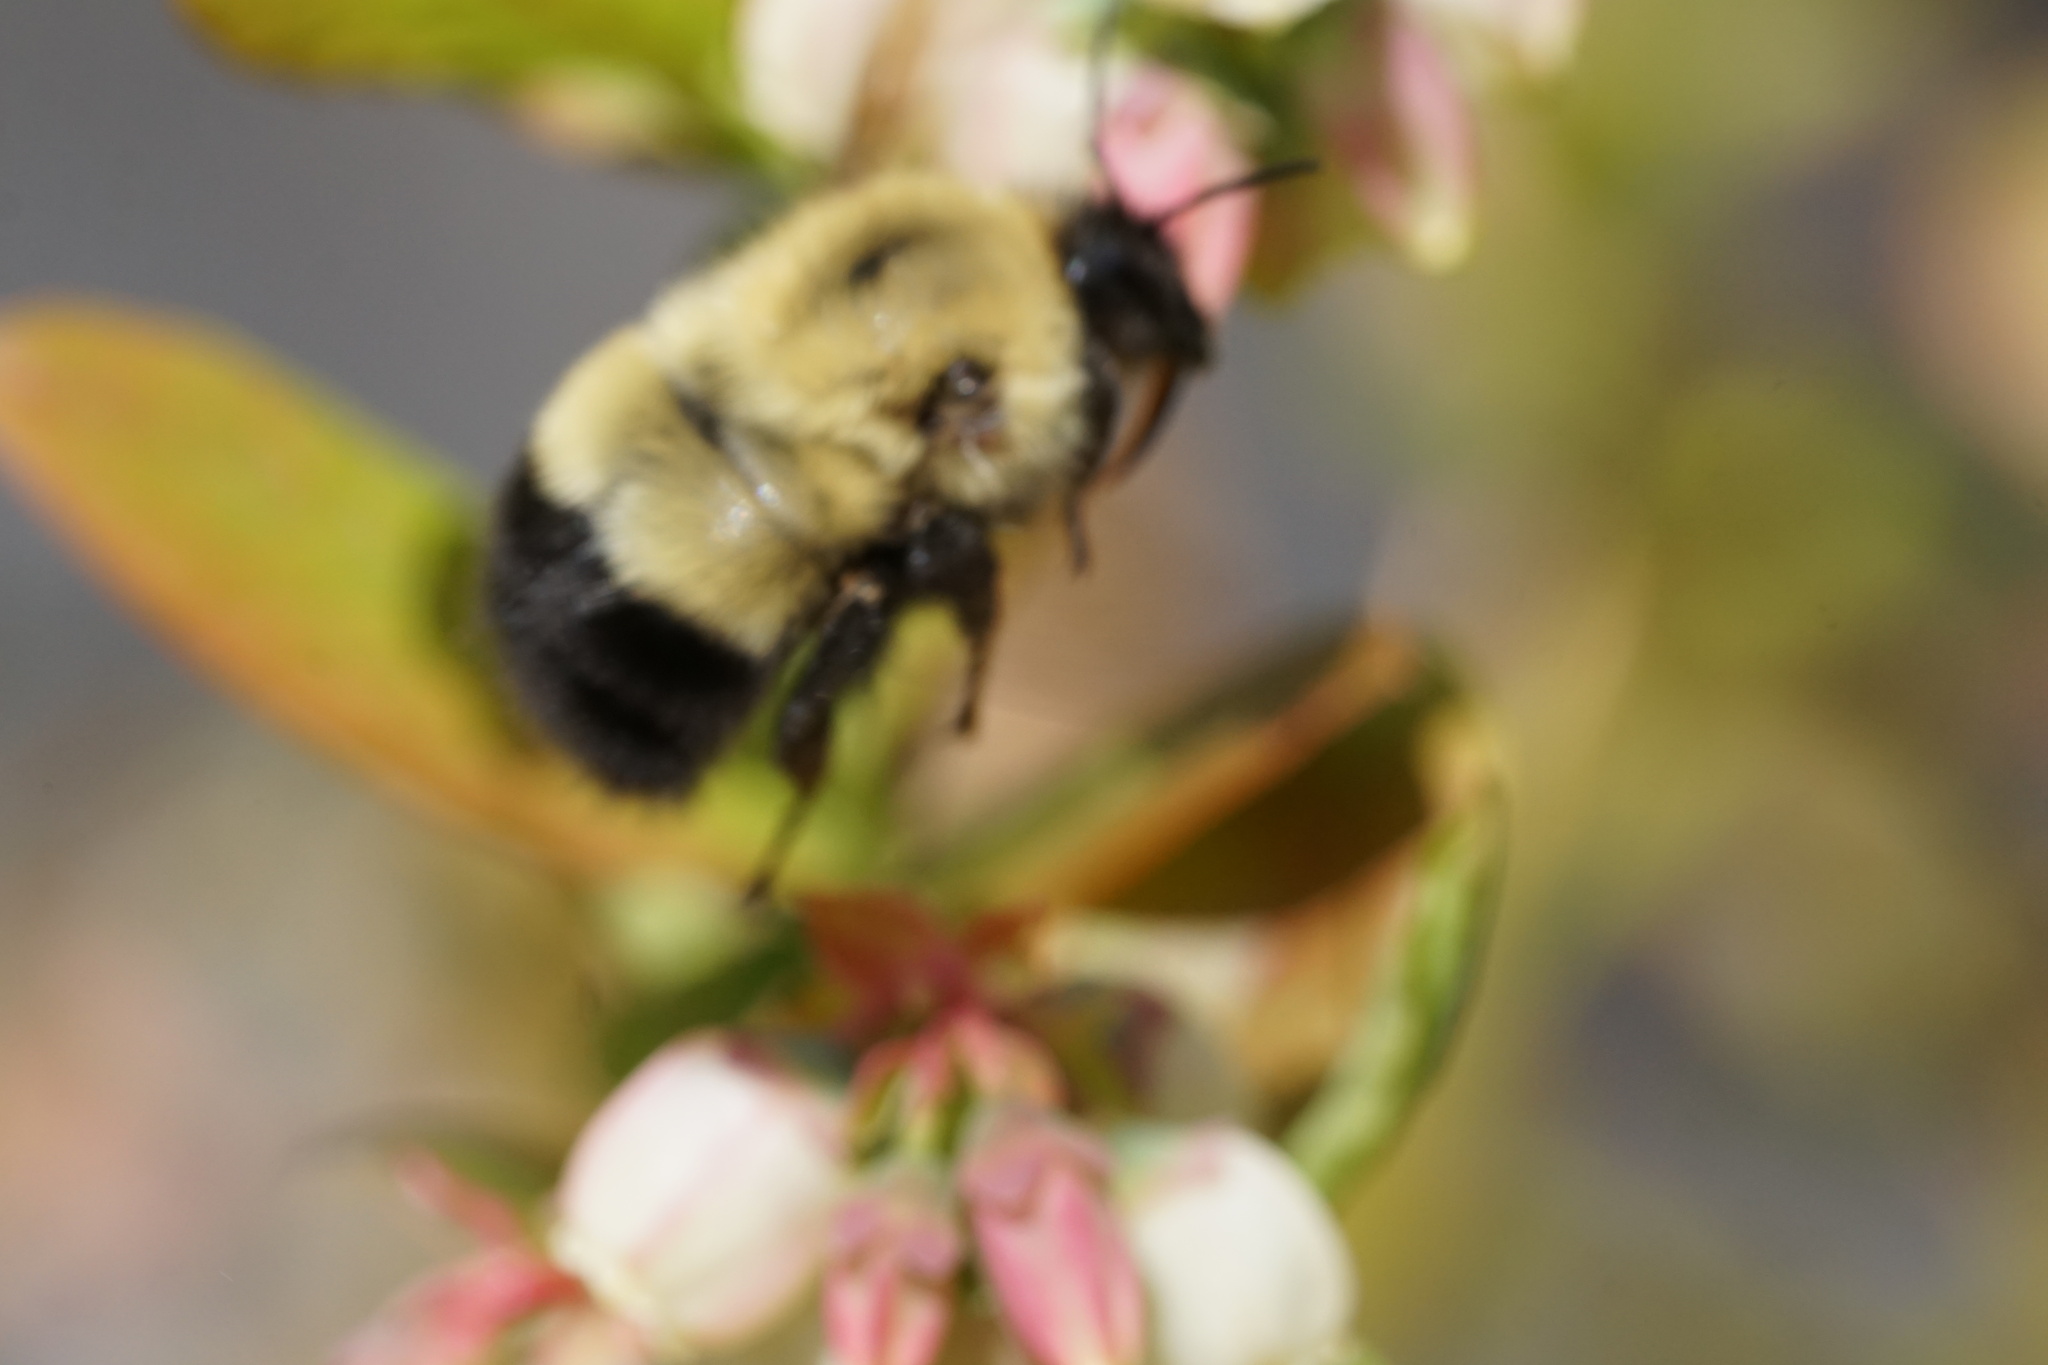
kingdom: Animalia
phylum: Arthropoda
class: Insecta
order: Hymenoptera
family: Apidae
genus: Bombus
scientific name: Bombus perplexus
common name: Confusing bumble bee
